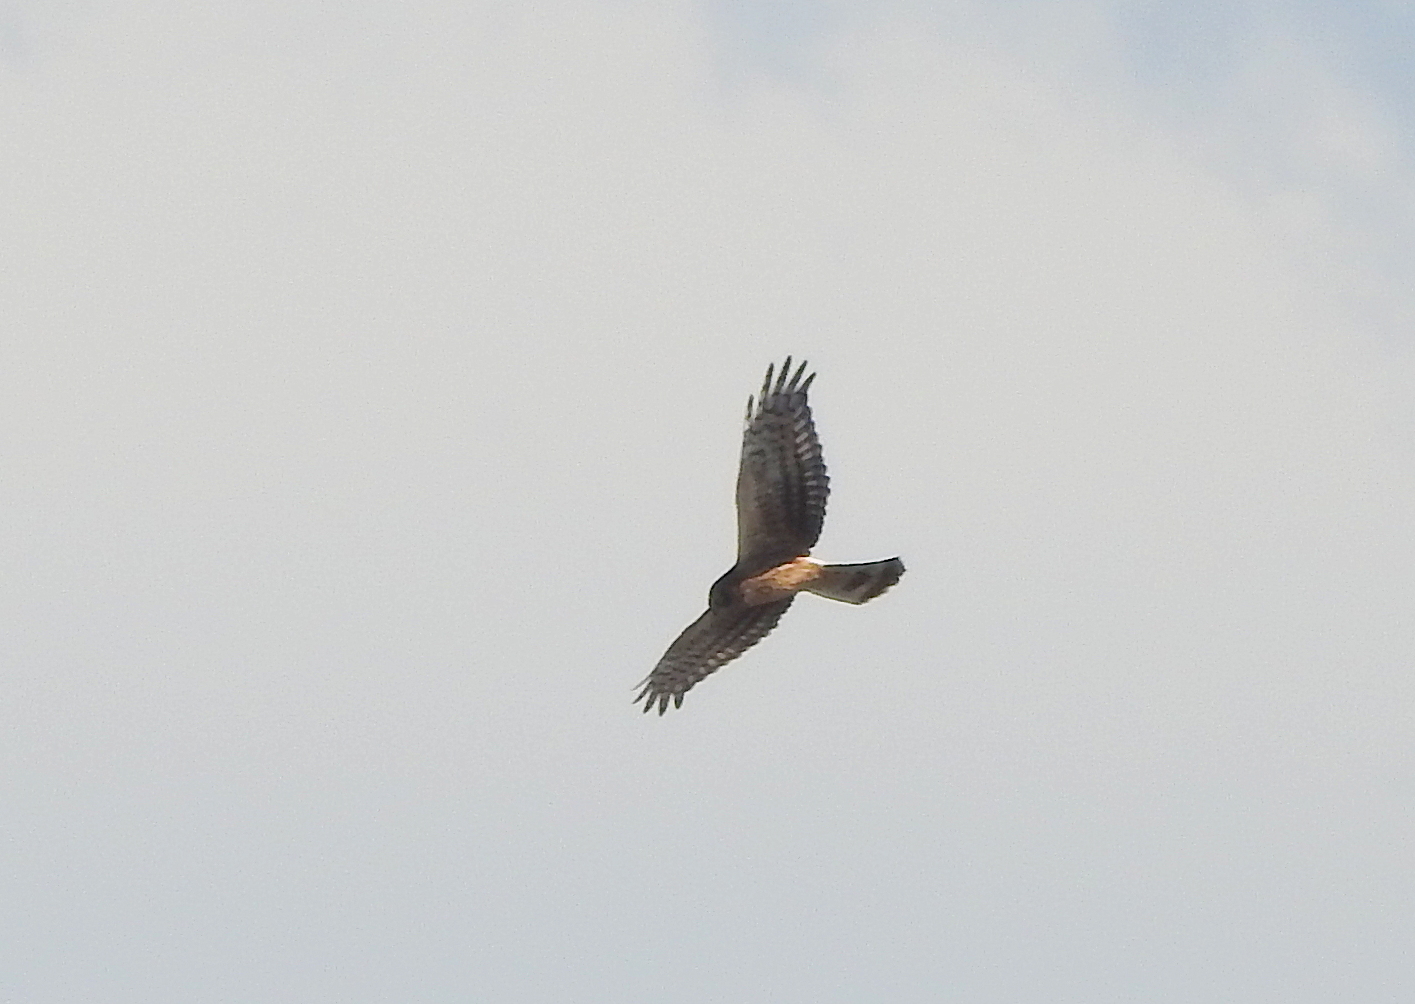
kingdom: Animalia
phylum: Chordata
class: Aves
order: Accipitriformes
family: Accipitridae
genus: Circus
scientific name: Circus cyaneus
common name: Hen harrier
